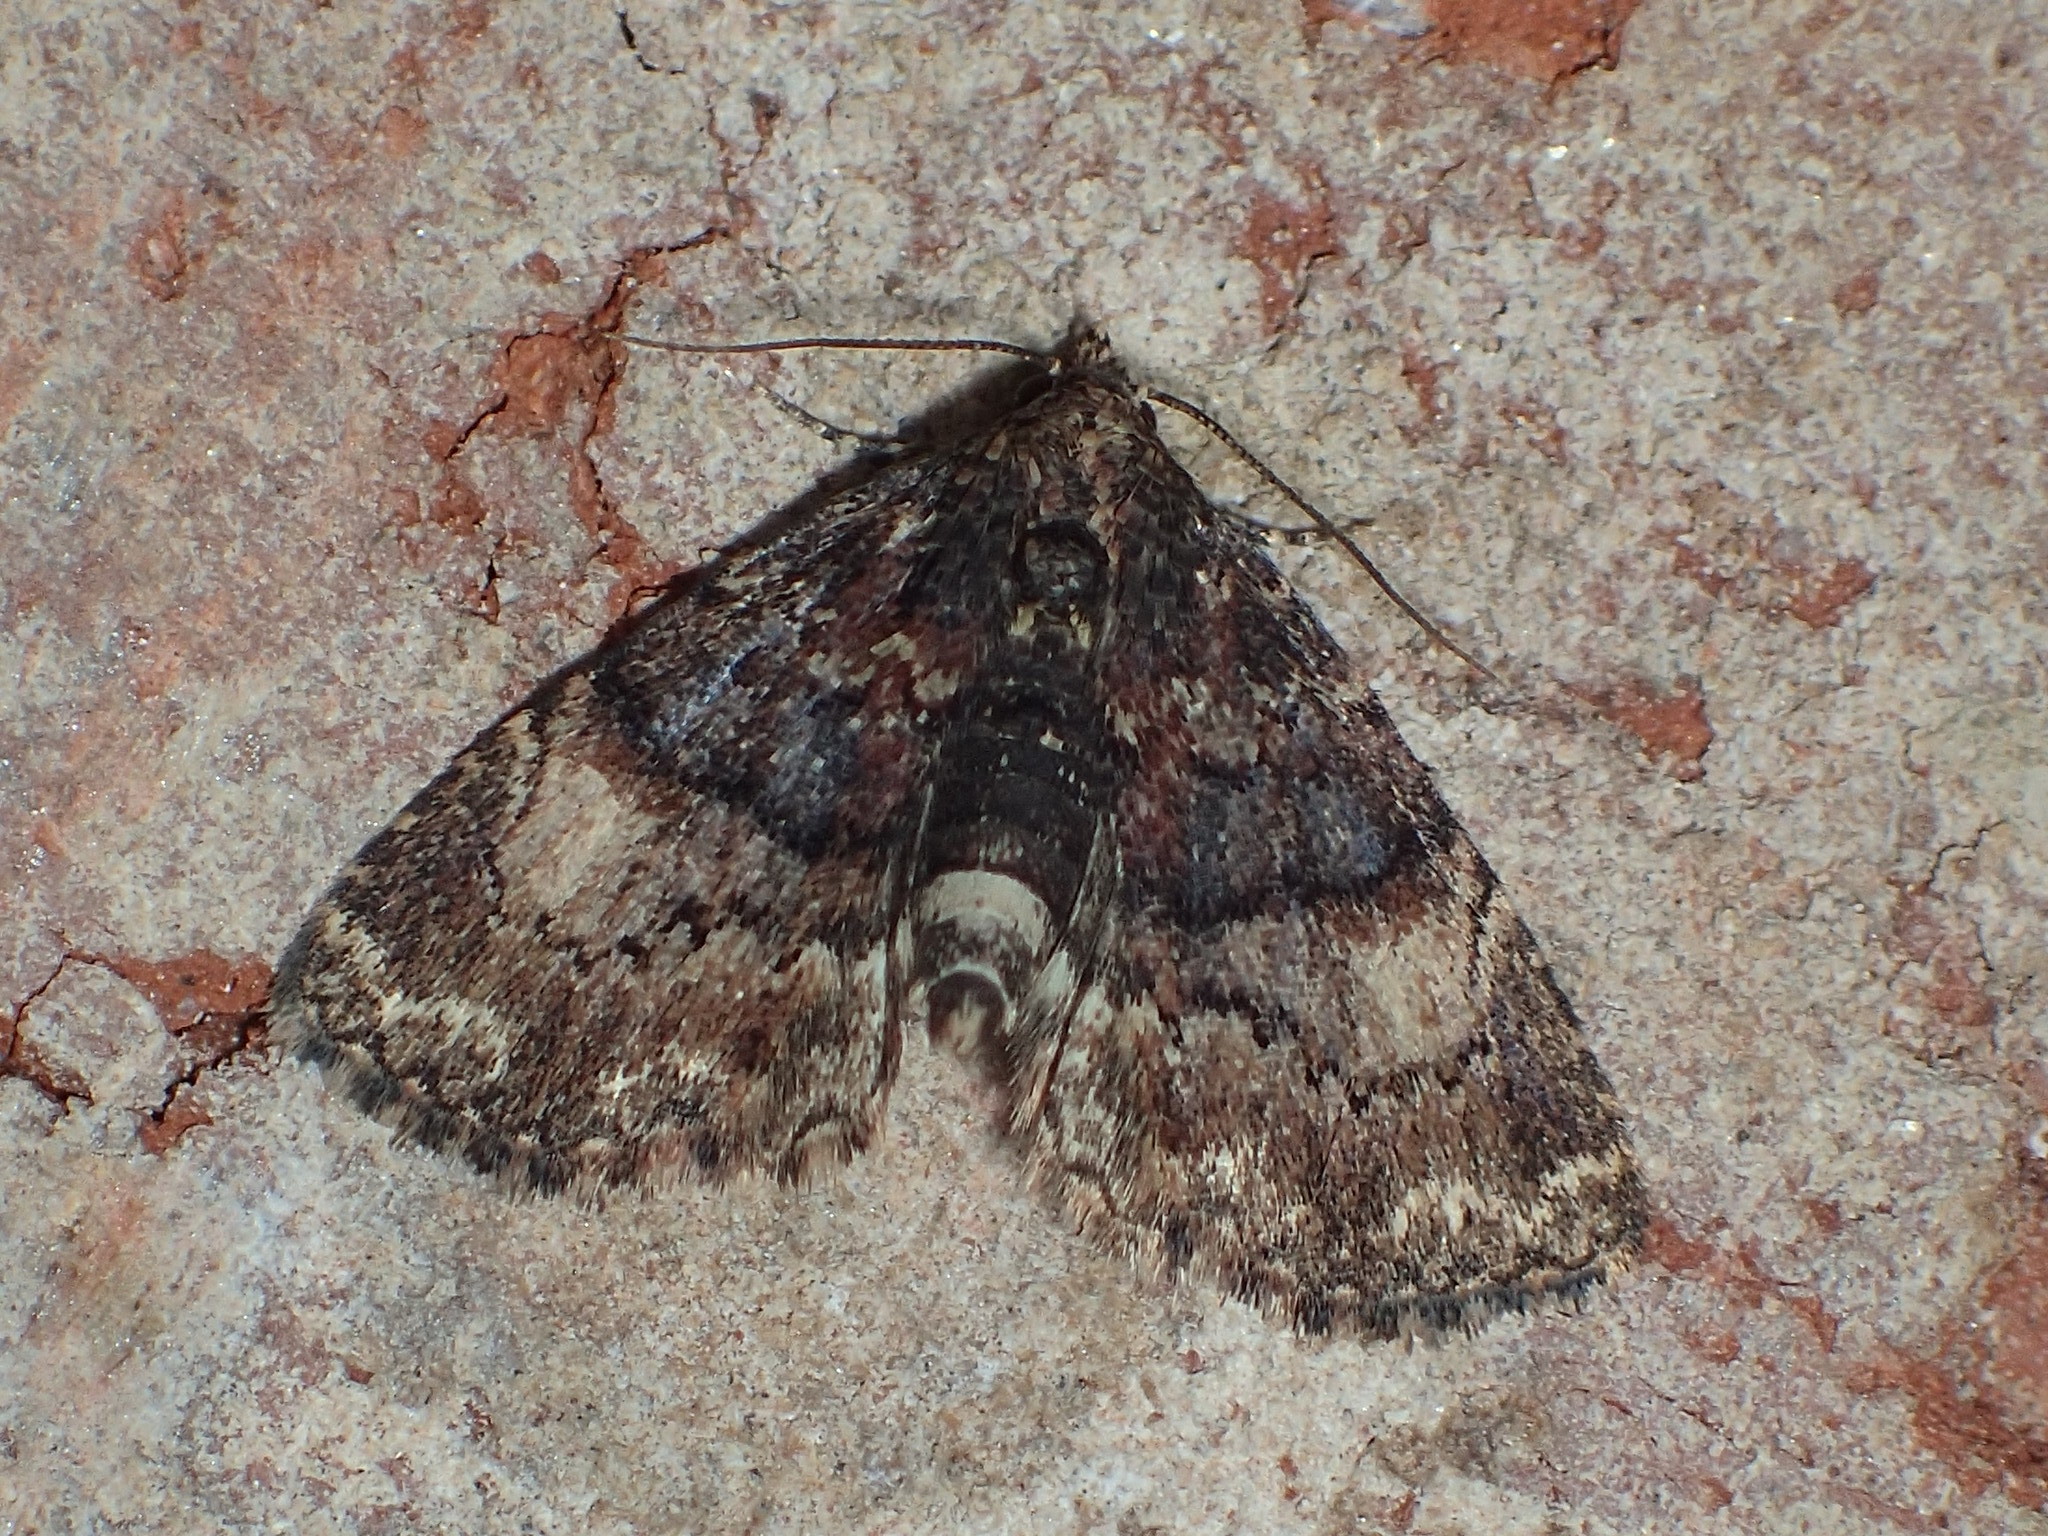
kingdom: Animalia
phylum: Arthropoda
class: Insecta
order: Lepidoptera
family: Erebidae
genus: Metalectra
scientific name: Metalectra richardsi
